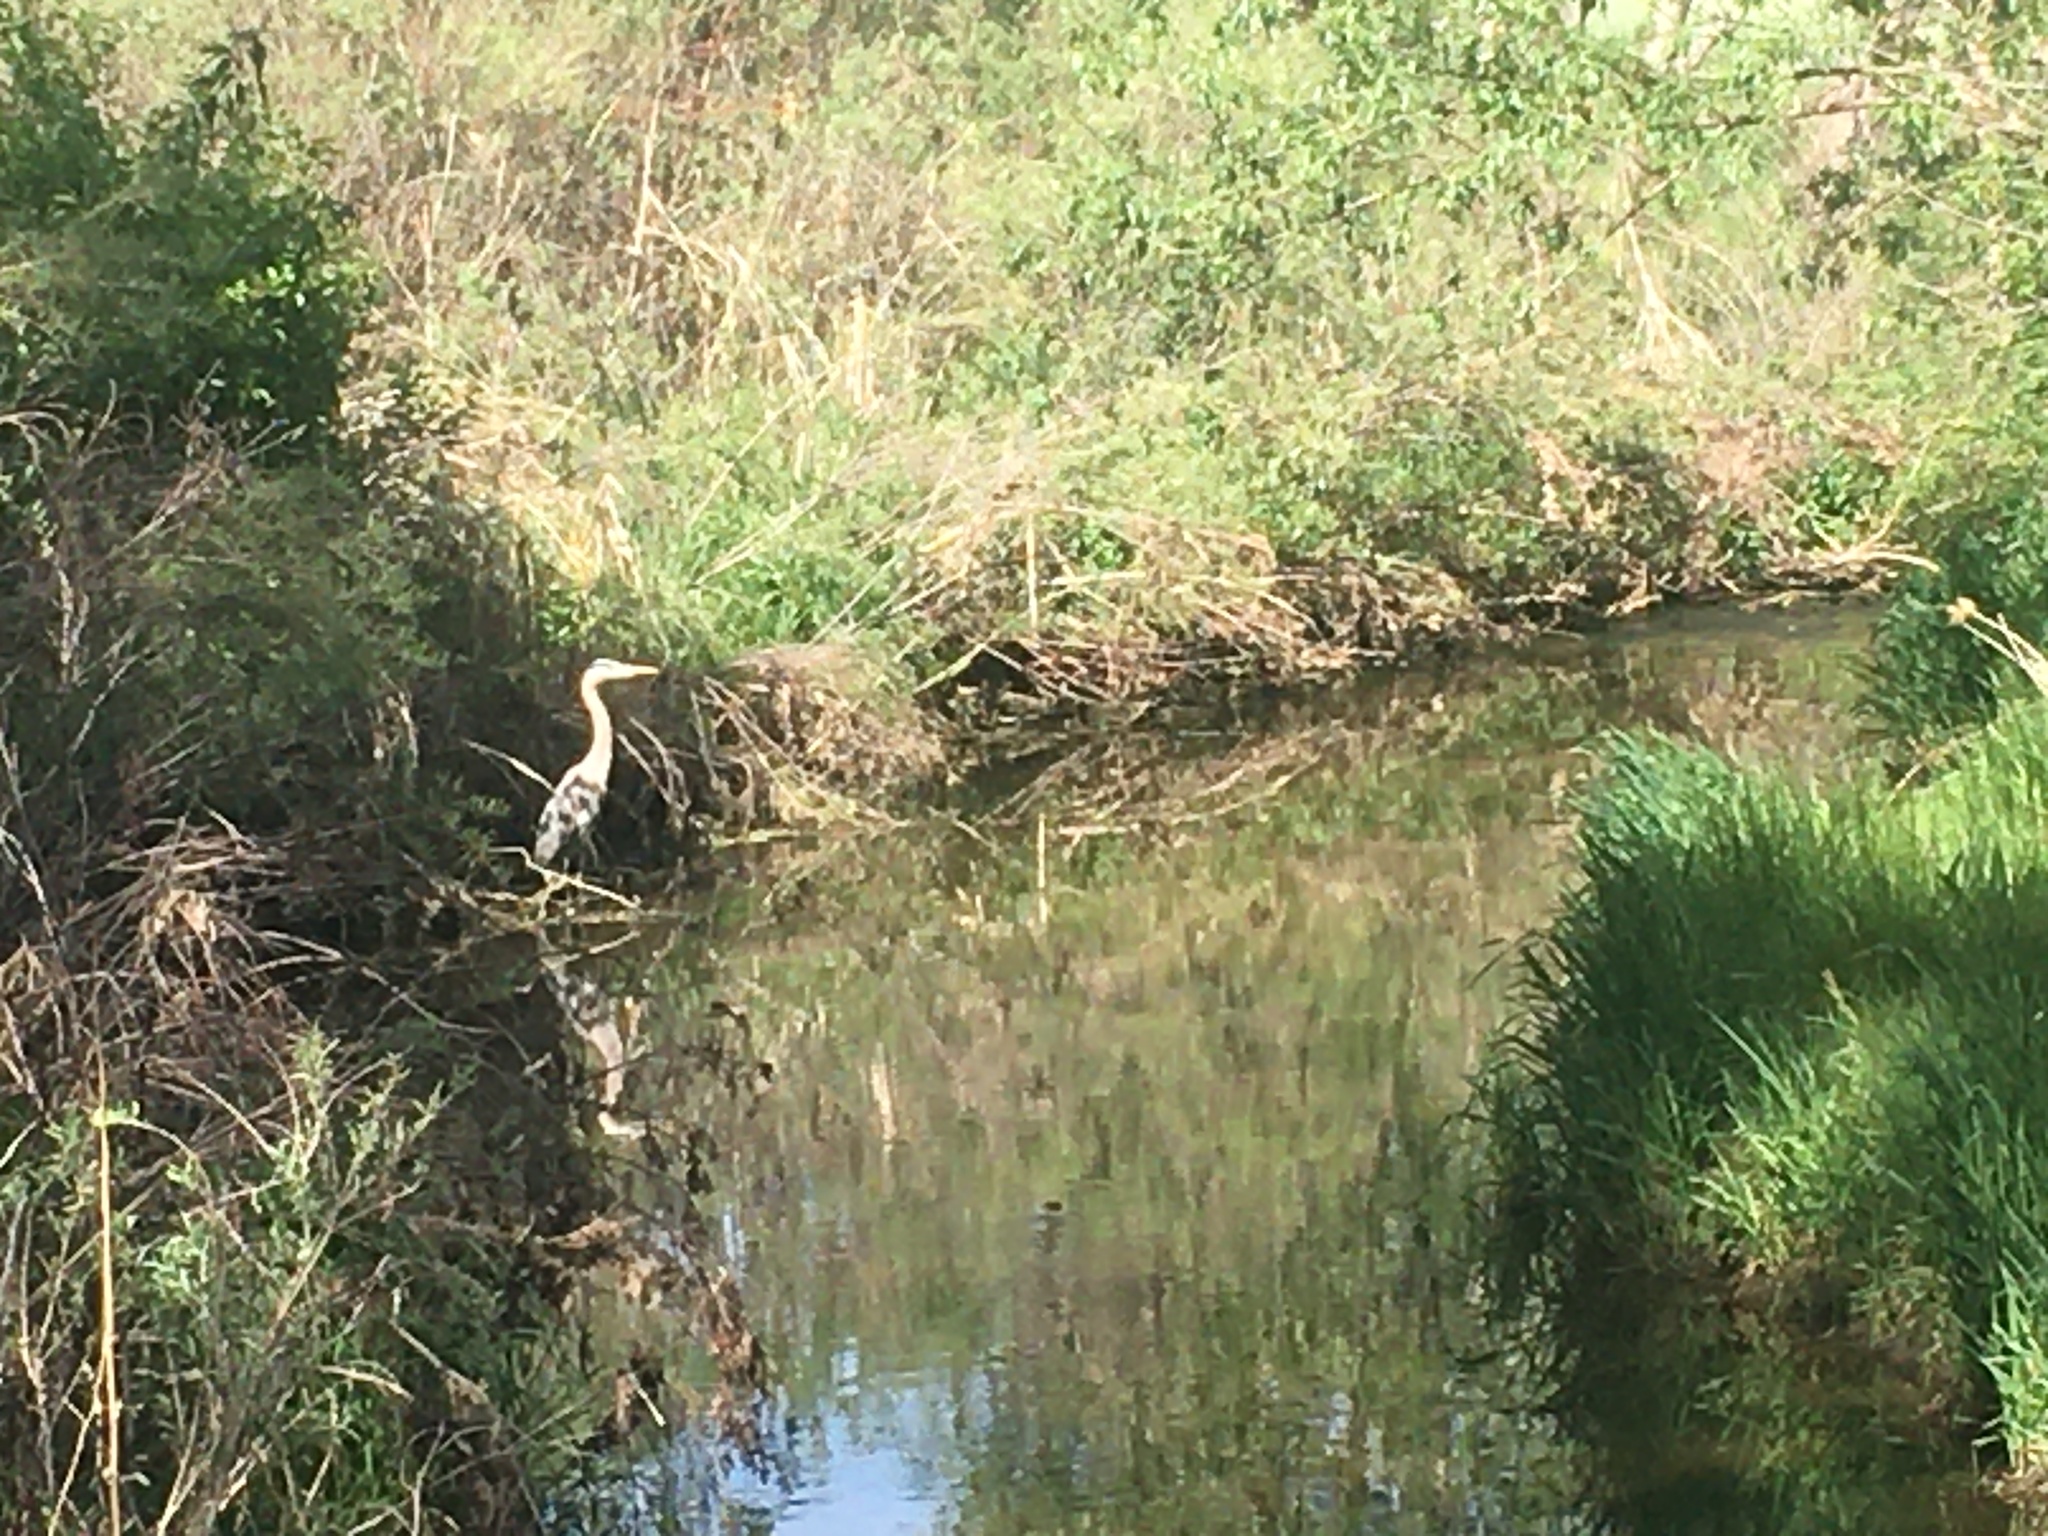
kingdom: Animalia
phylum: Chordata
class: Aves
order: Pelecaniformes
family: Ardeidae
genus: Ardea
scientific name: Ardea herodias
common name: Great blue heron
